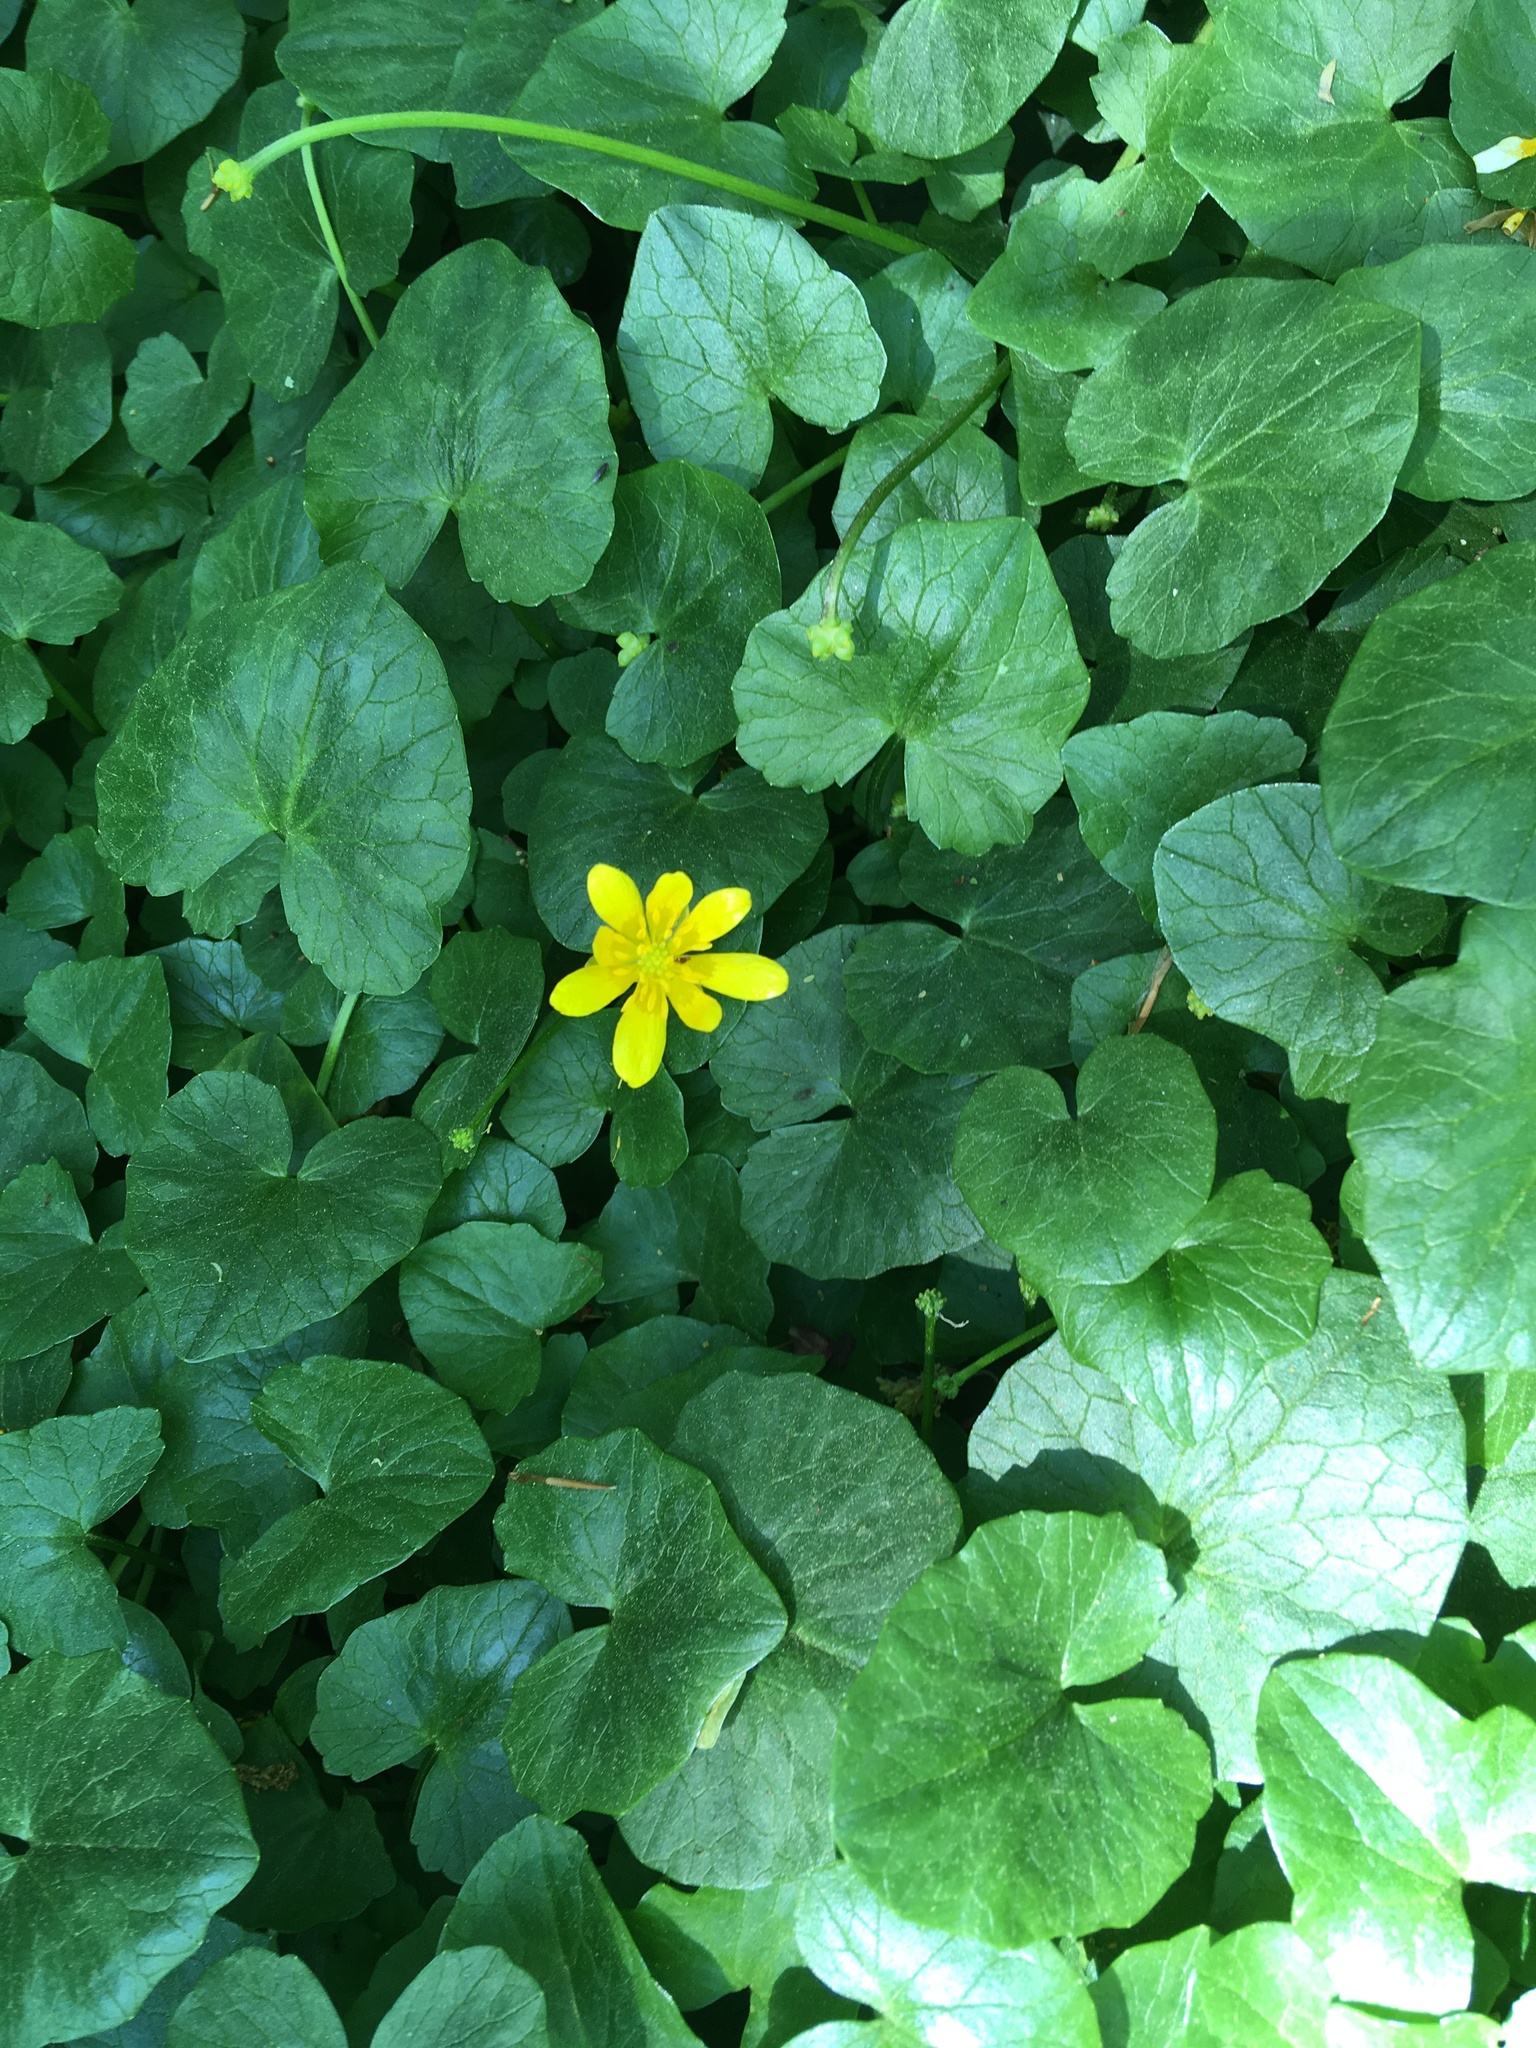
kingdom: Plantae
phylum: Tracheophyta
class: Magnoliopsida
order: Ranunculales
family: Ranunculaceae
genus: Ficaria
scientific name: Ficaria verna
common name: Lesser celandine
